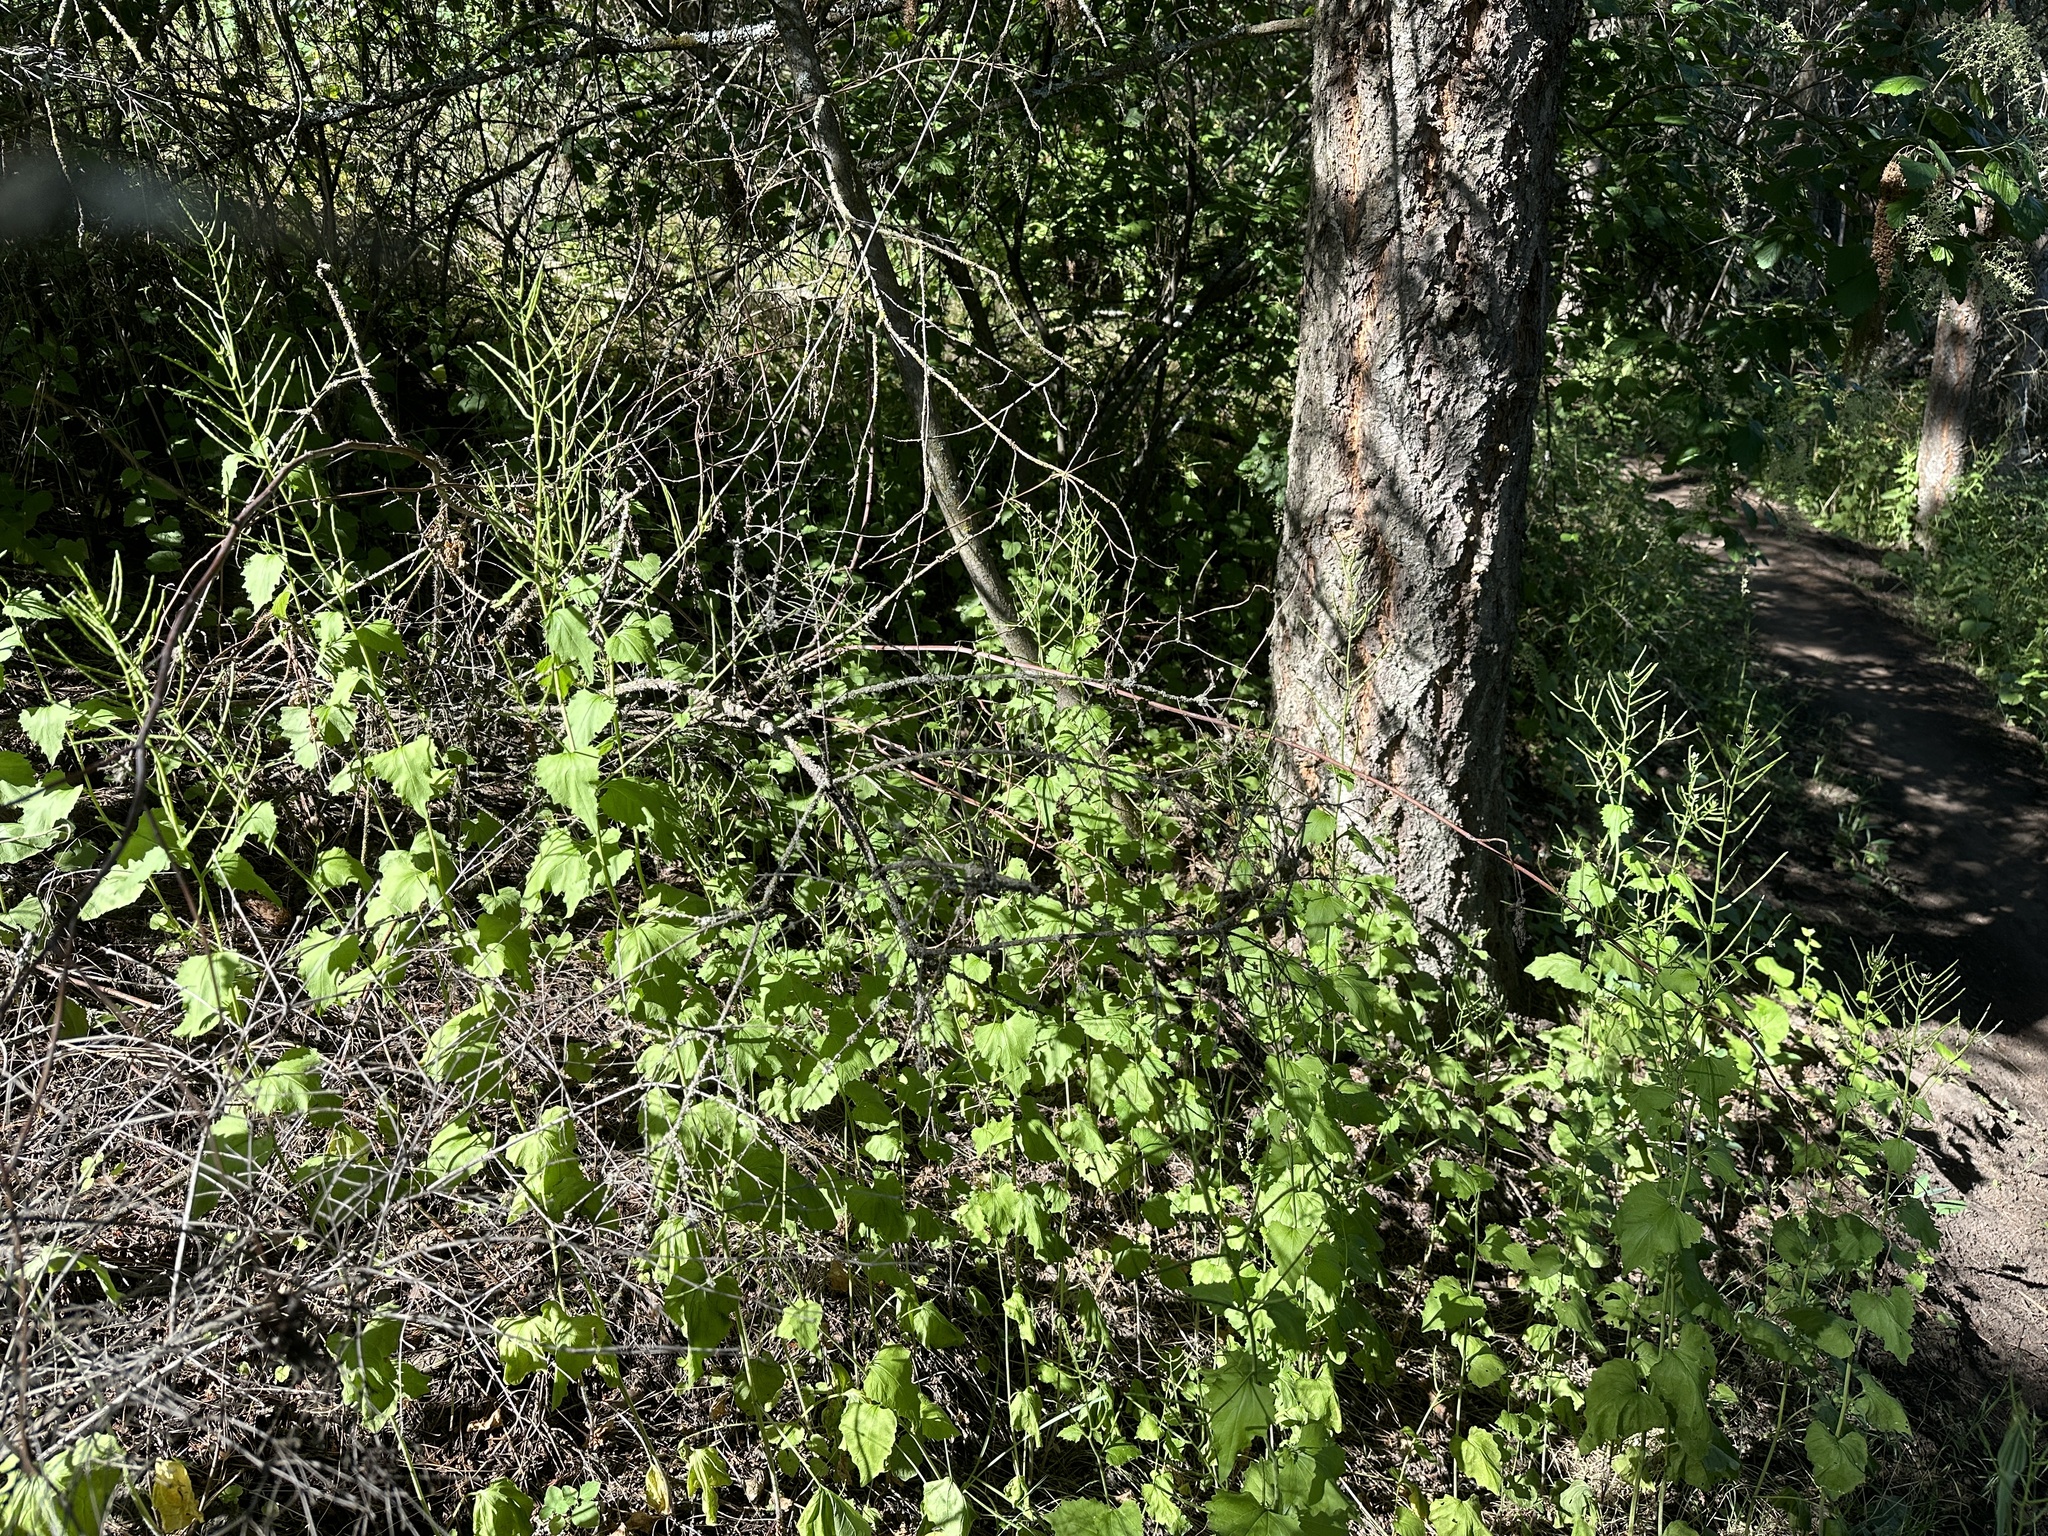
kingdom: Plantae
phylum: Tracheophyta
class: Magnoliopsida
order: Brassicales
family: Brassicaceae
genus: Alliaria
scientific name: Alliaria petiolata
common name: Garlic mustard
